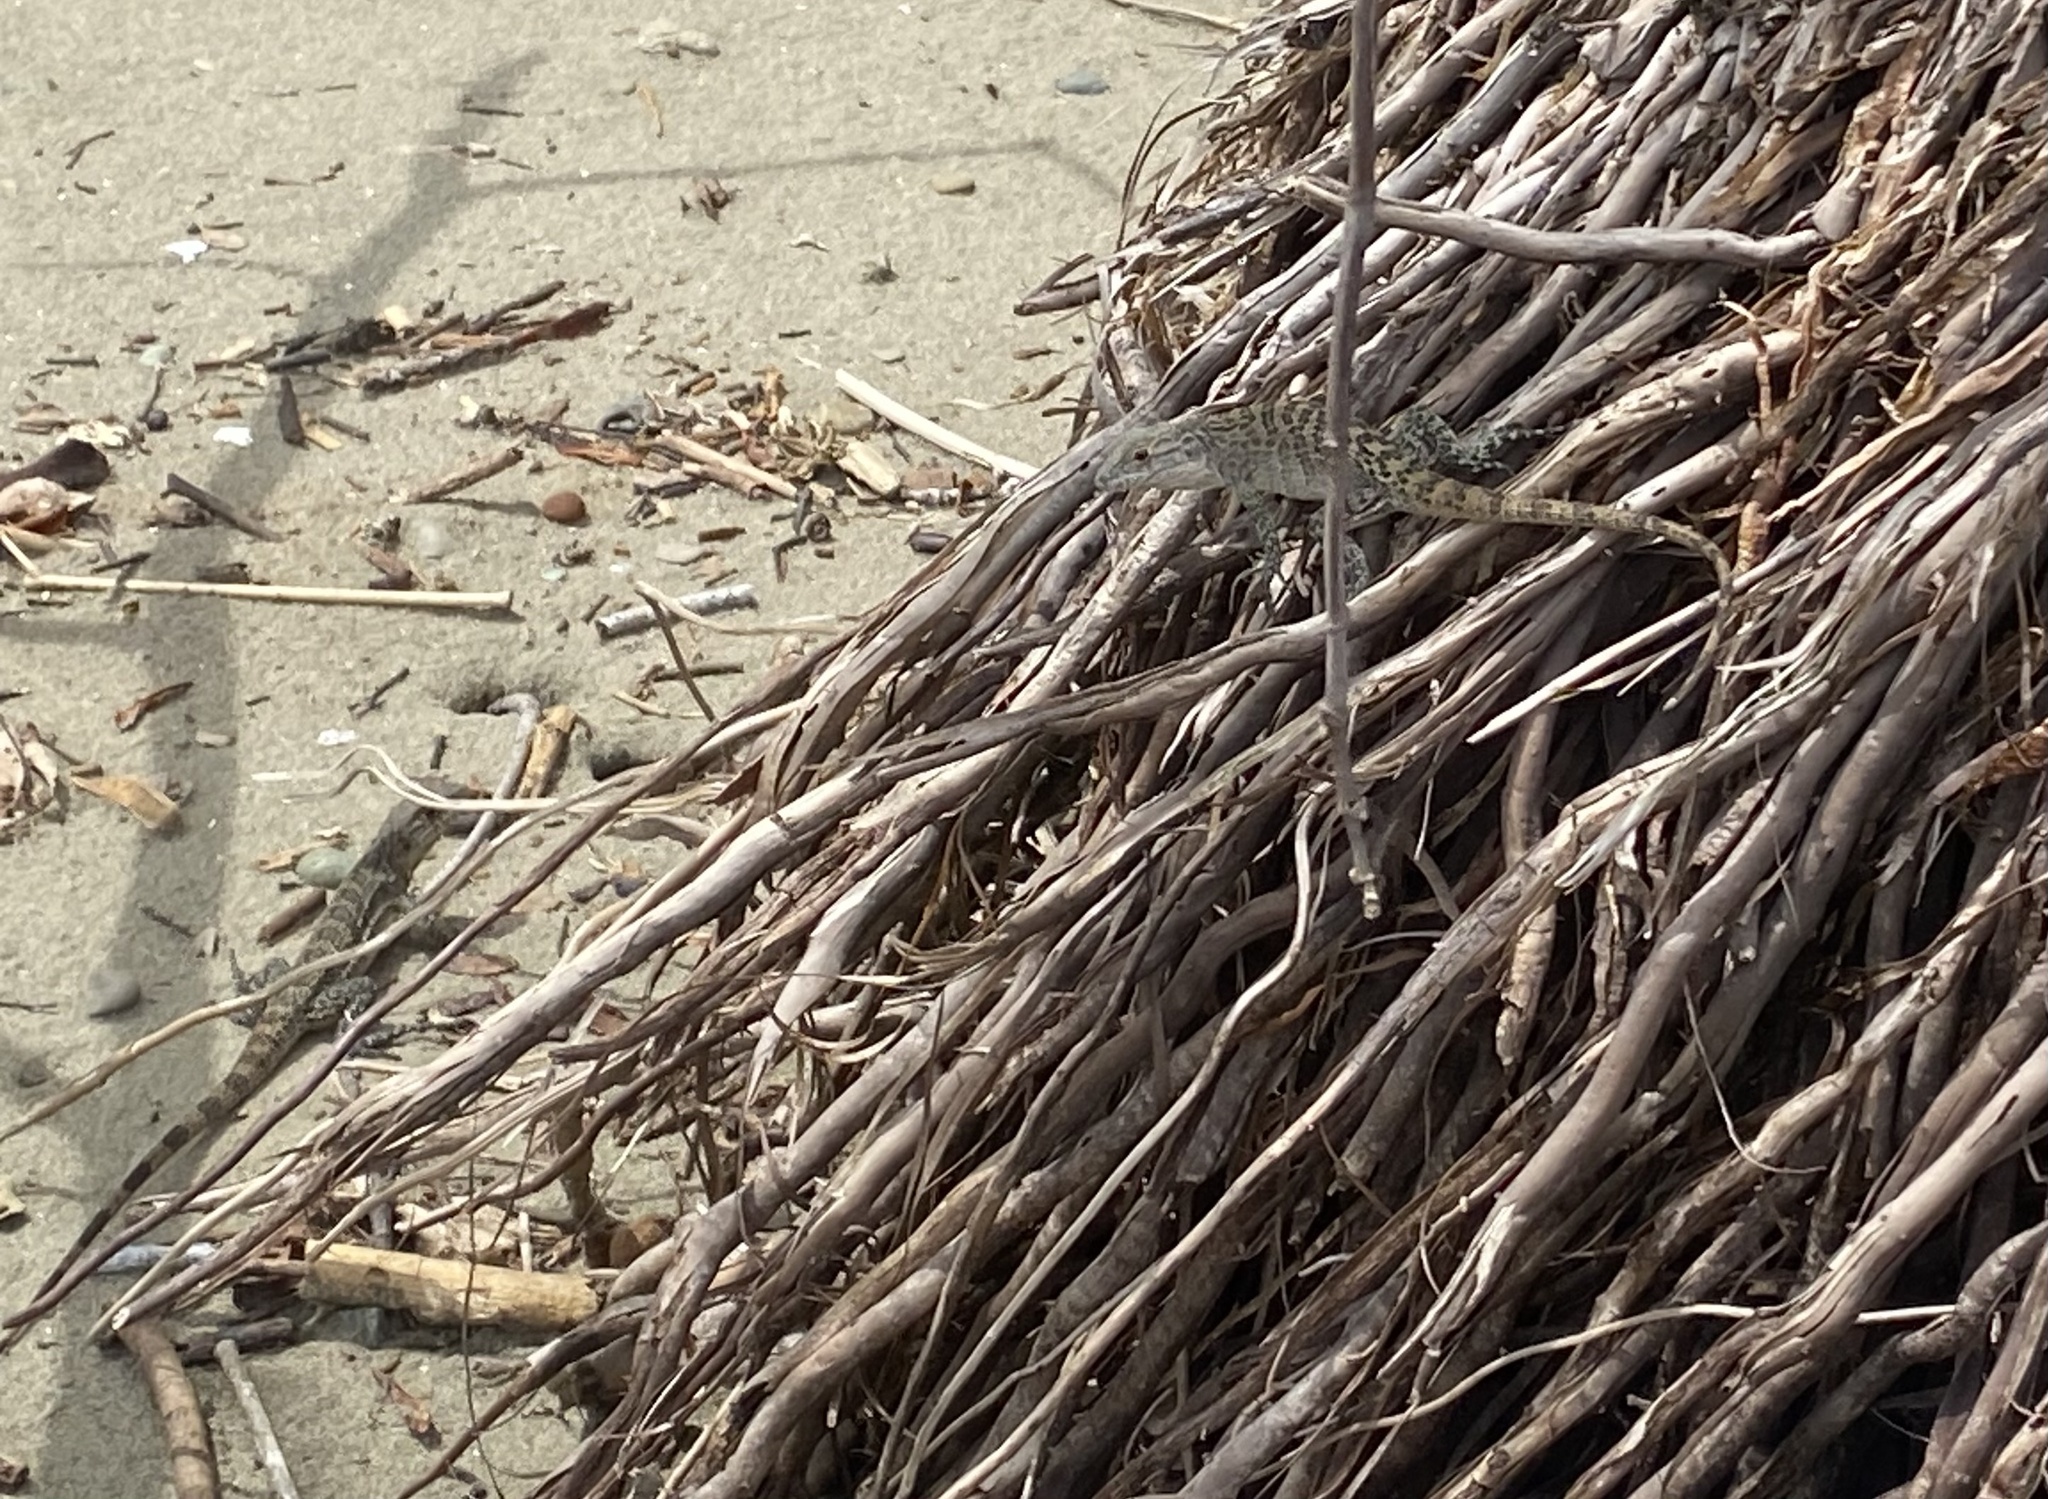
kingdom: Animalia
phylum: Chordata
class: Squamata
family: Iguanidae
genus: Ctenosaura
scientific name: Ctenosaura similis
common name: Black spiny-tailed iguana
